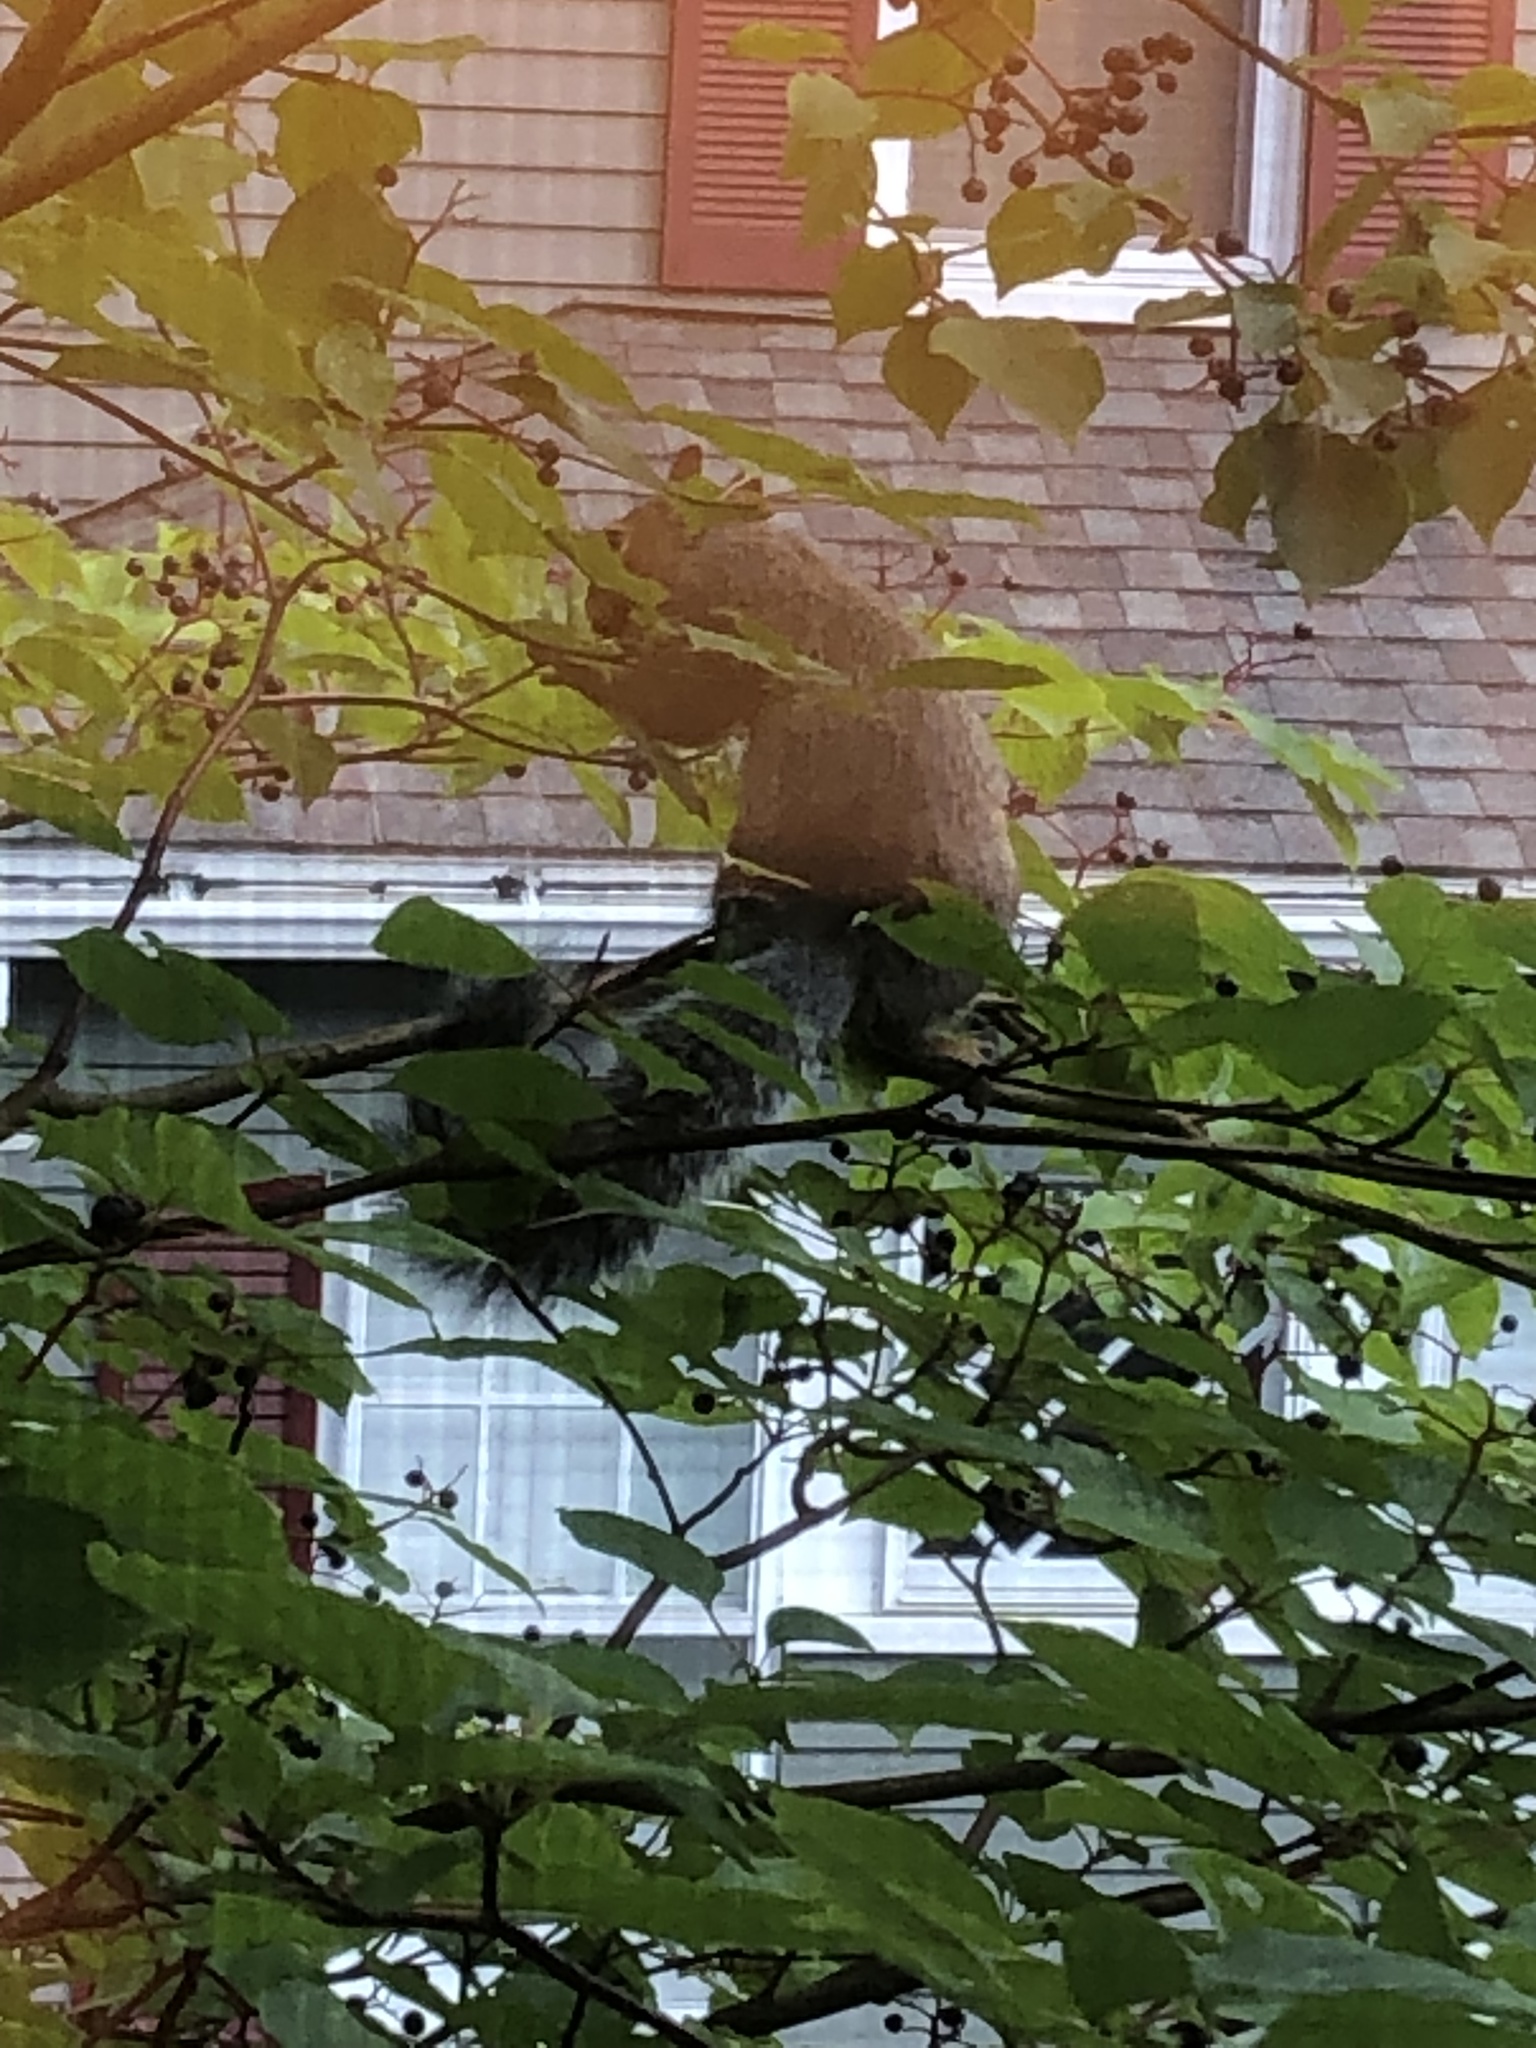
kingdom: Animalia
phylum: Chordata
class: Mammalia
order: Rodentia
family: Sciuridae
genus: Sciurus
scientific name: Sciurus carolinensis
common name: Eastern gray squirrel
